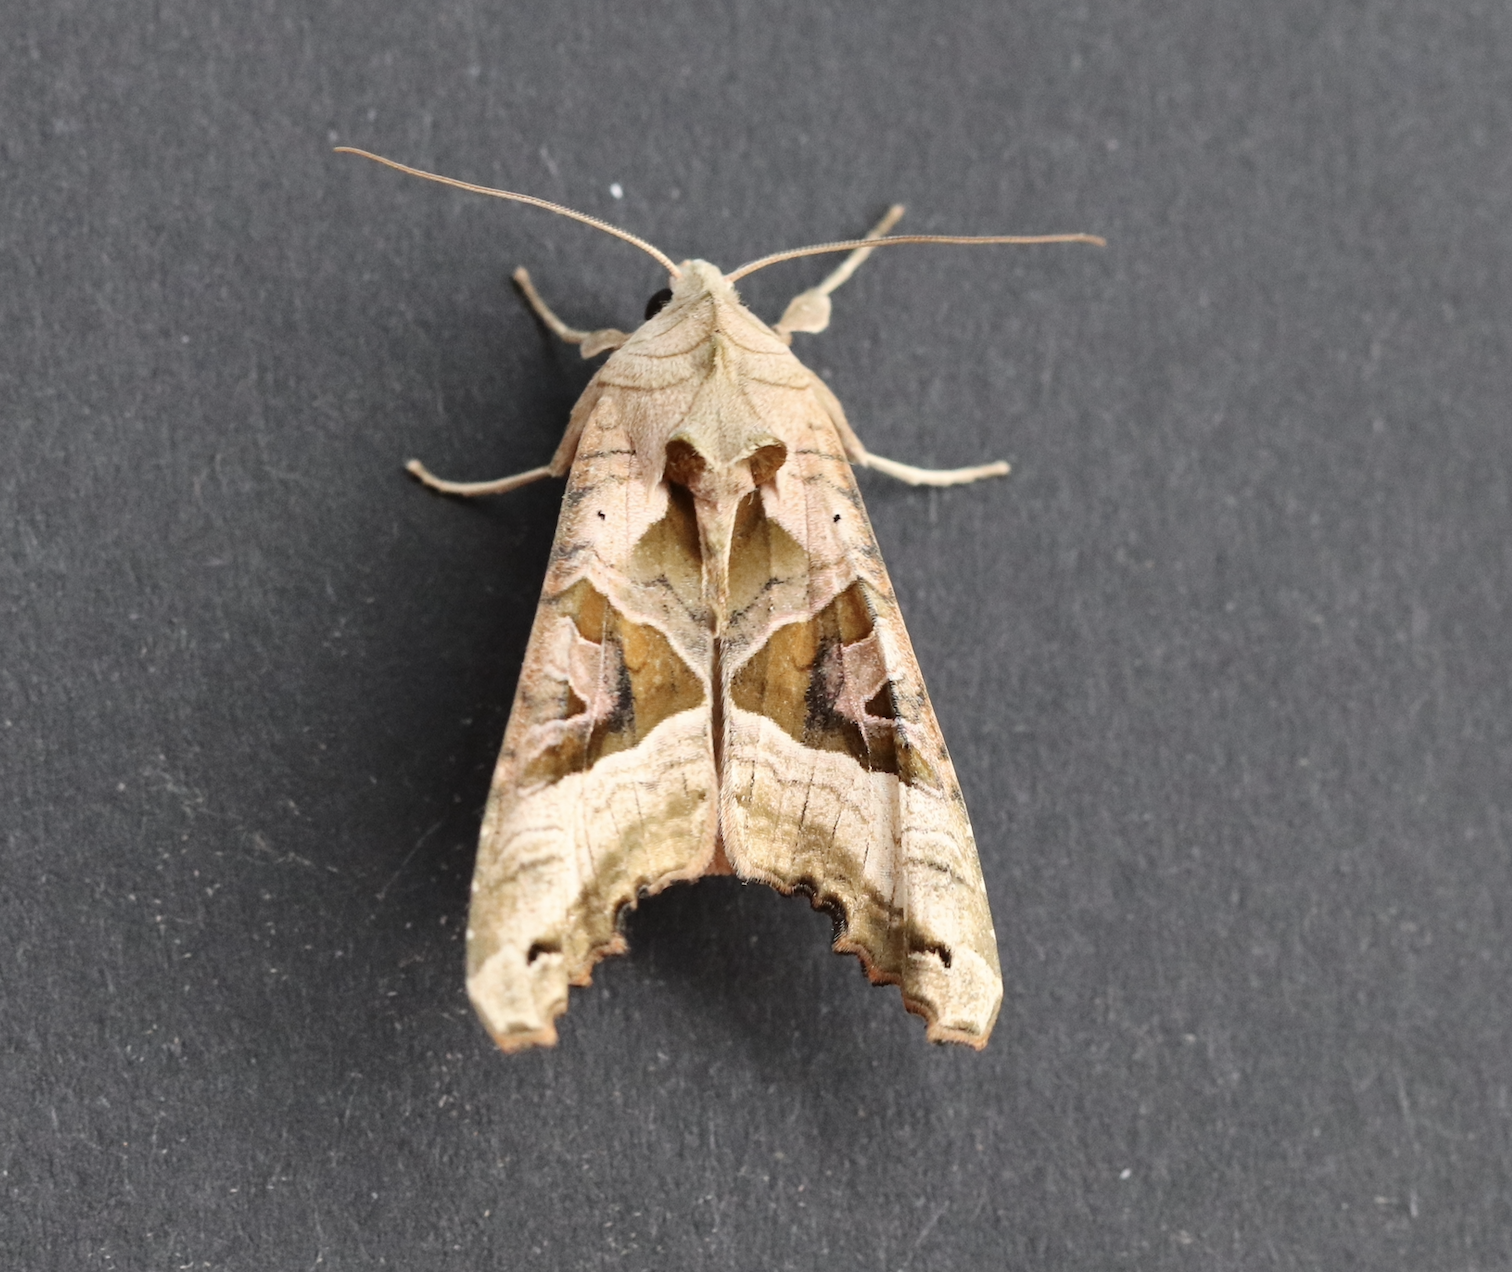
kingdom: Animalia
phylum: Arthropoda
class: Insecta
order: Lepidoptera
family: Noctuidae
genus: Phlogophora
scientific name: Phlogophora meticulosa
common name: Angle shades
